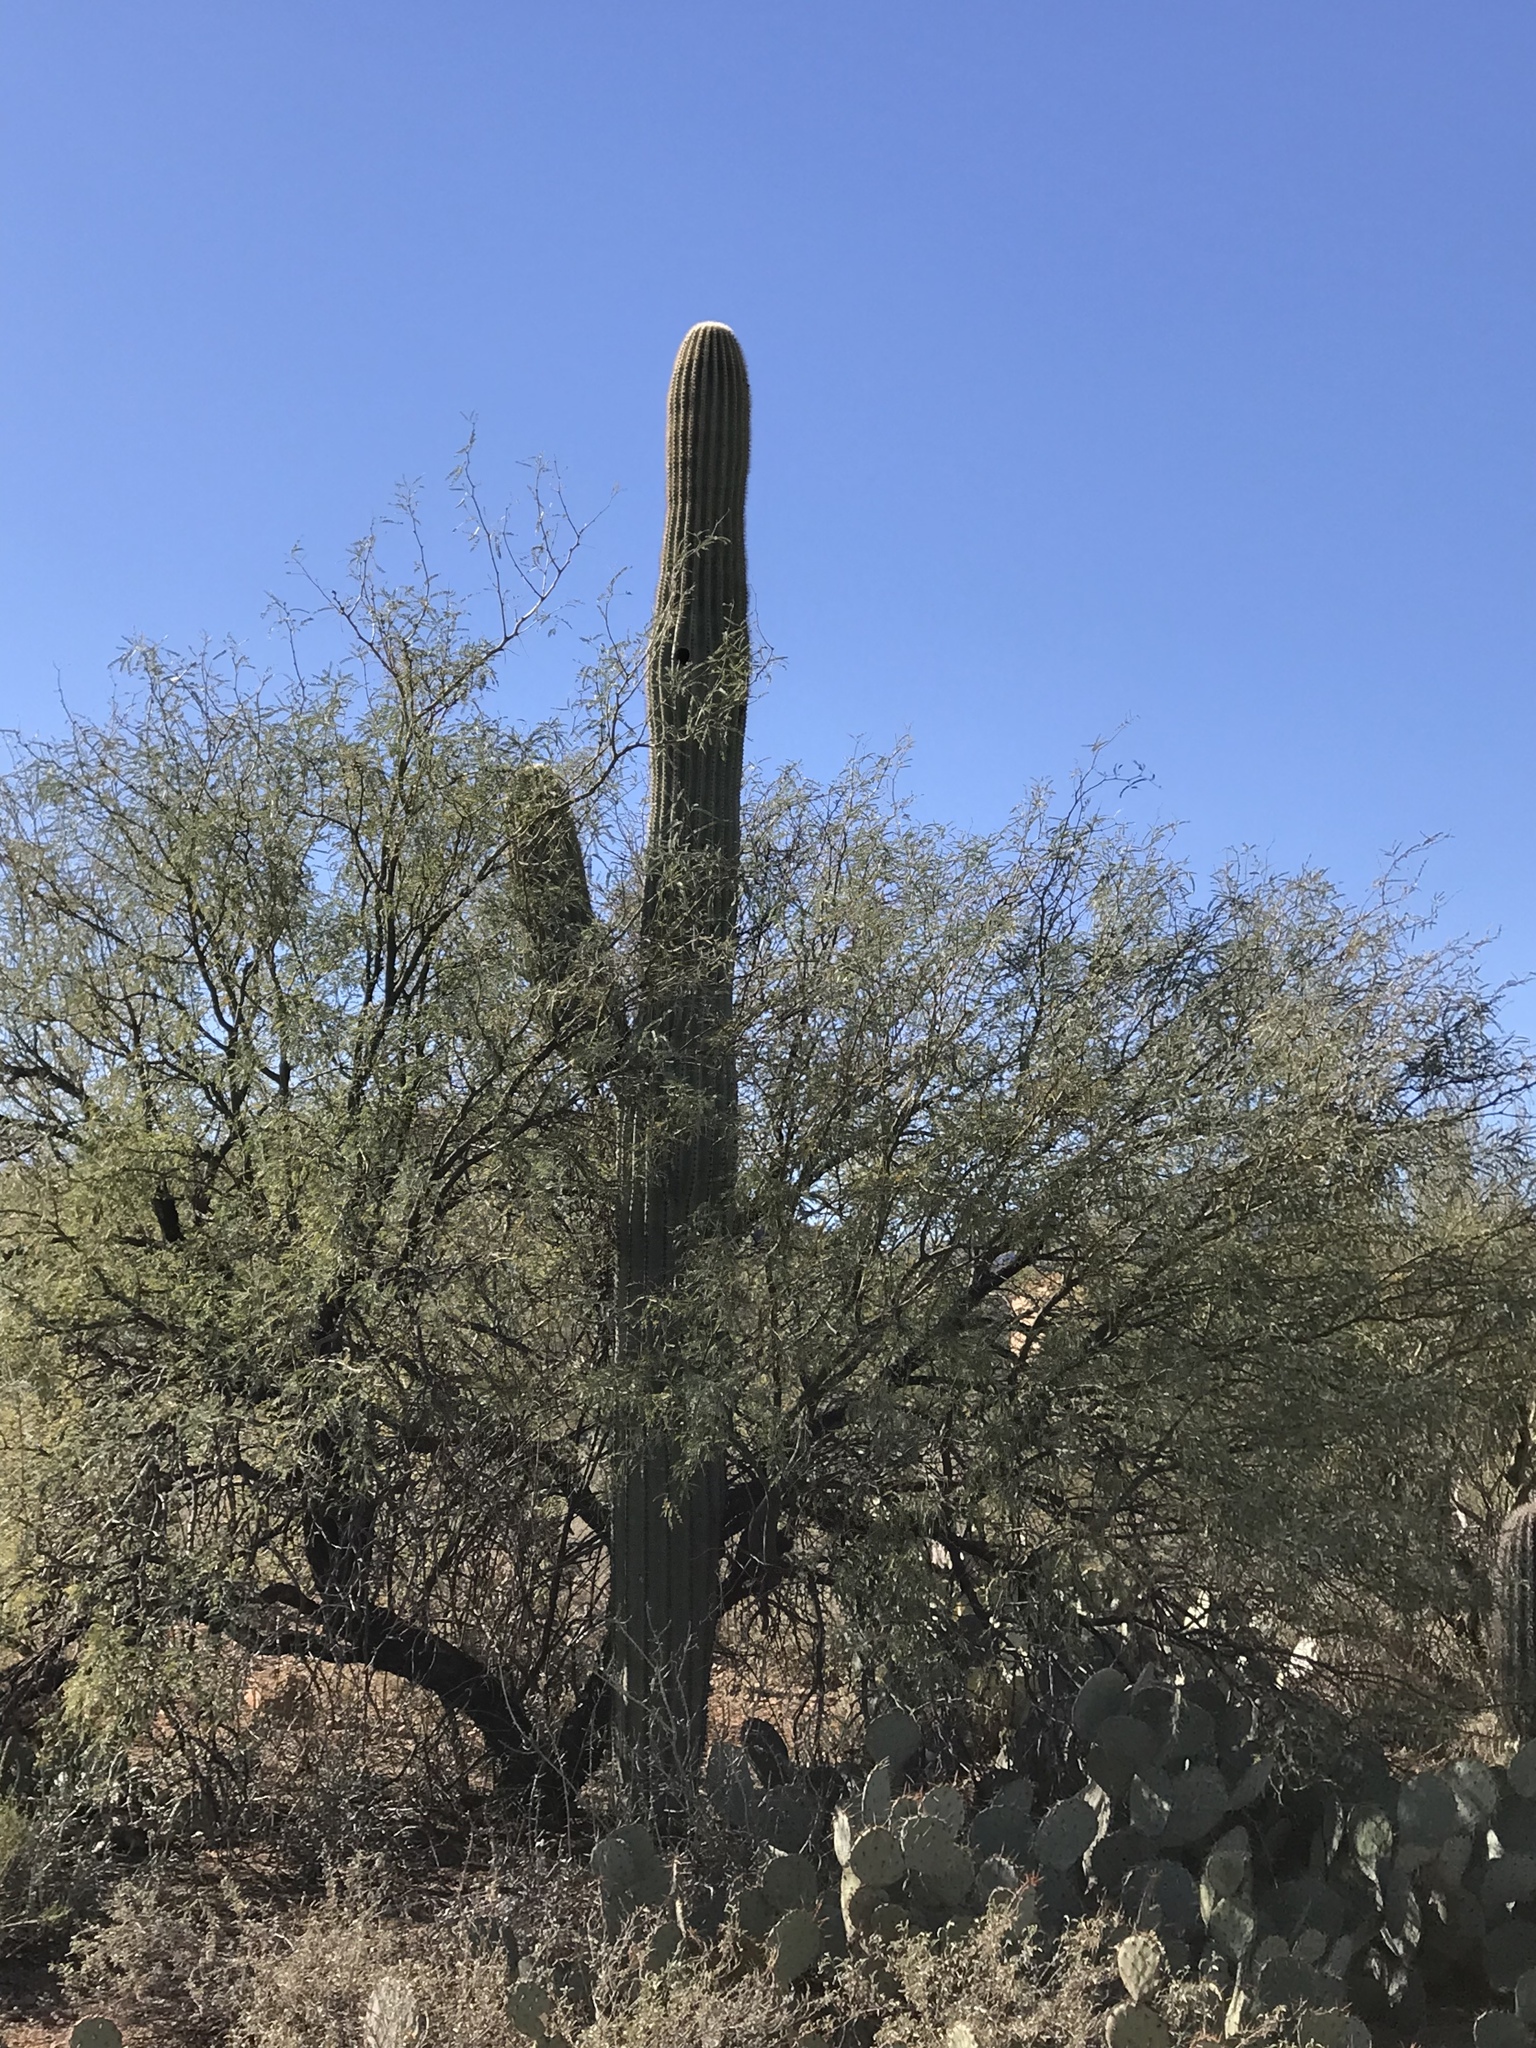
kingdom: Plantae
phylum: Tracheophyta
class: Magnoliopsida
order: Caryophyllales
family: Cactaceae
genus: Carnegiea
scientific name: Carnegiea gigantea
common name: Saguaro
